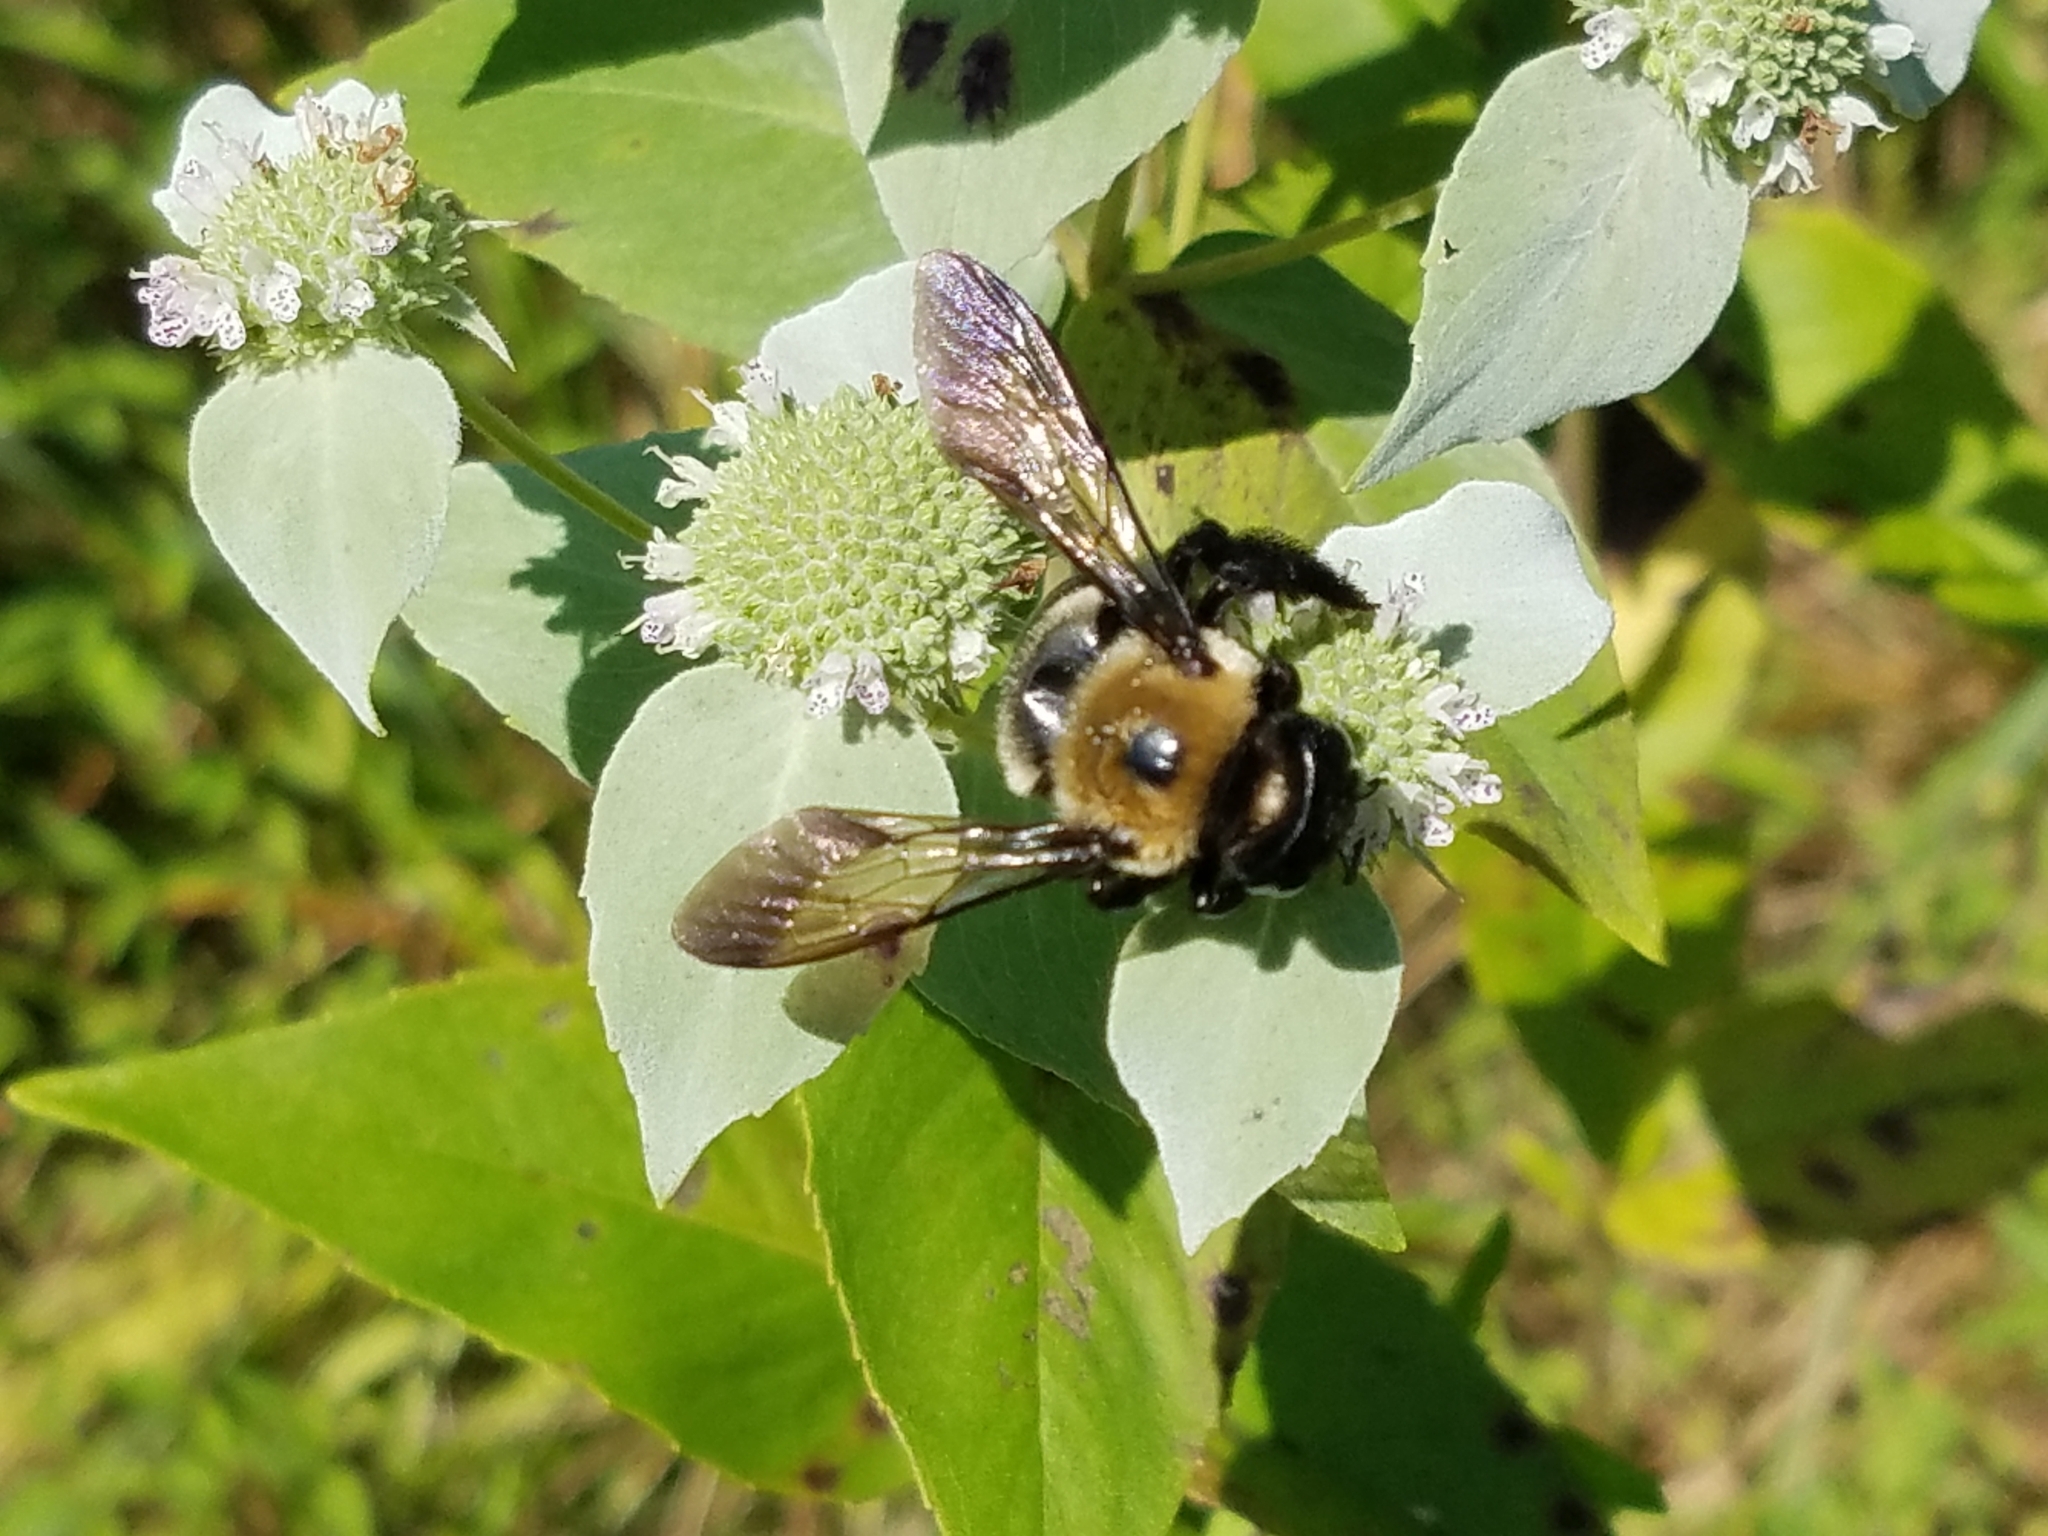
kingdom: Animalia
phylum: Arthropoda
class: Insecta
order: Hymenoptera
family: Apidae
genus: Xylocopa
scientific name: Xylocopa virginica
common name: Carpenter bee
